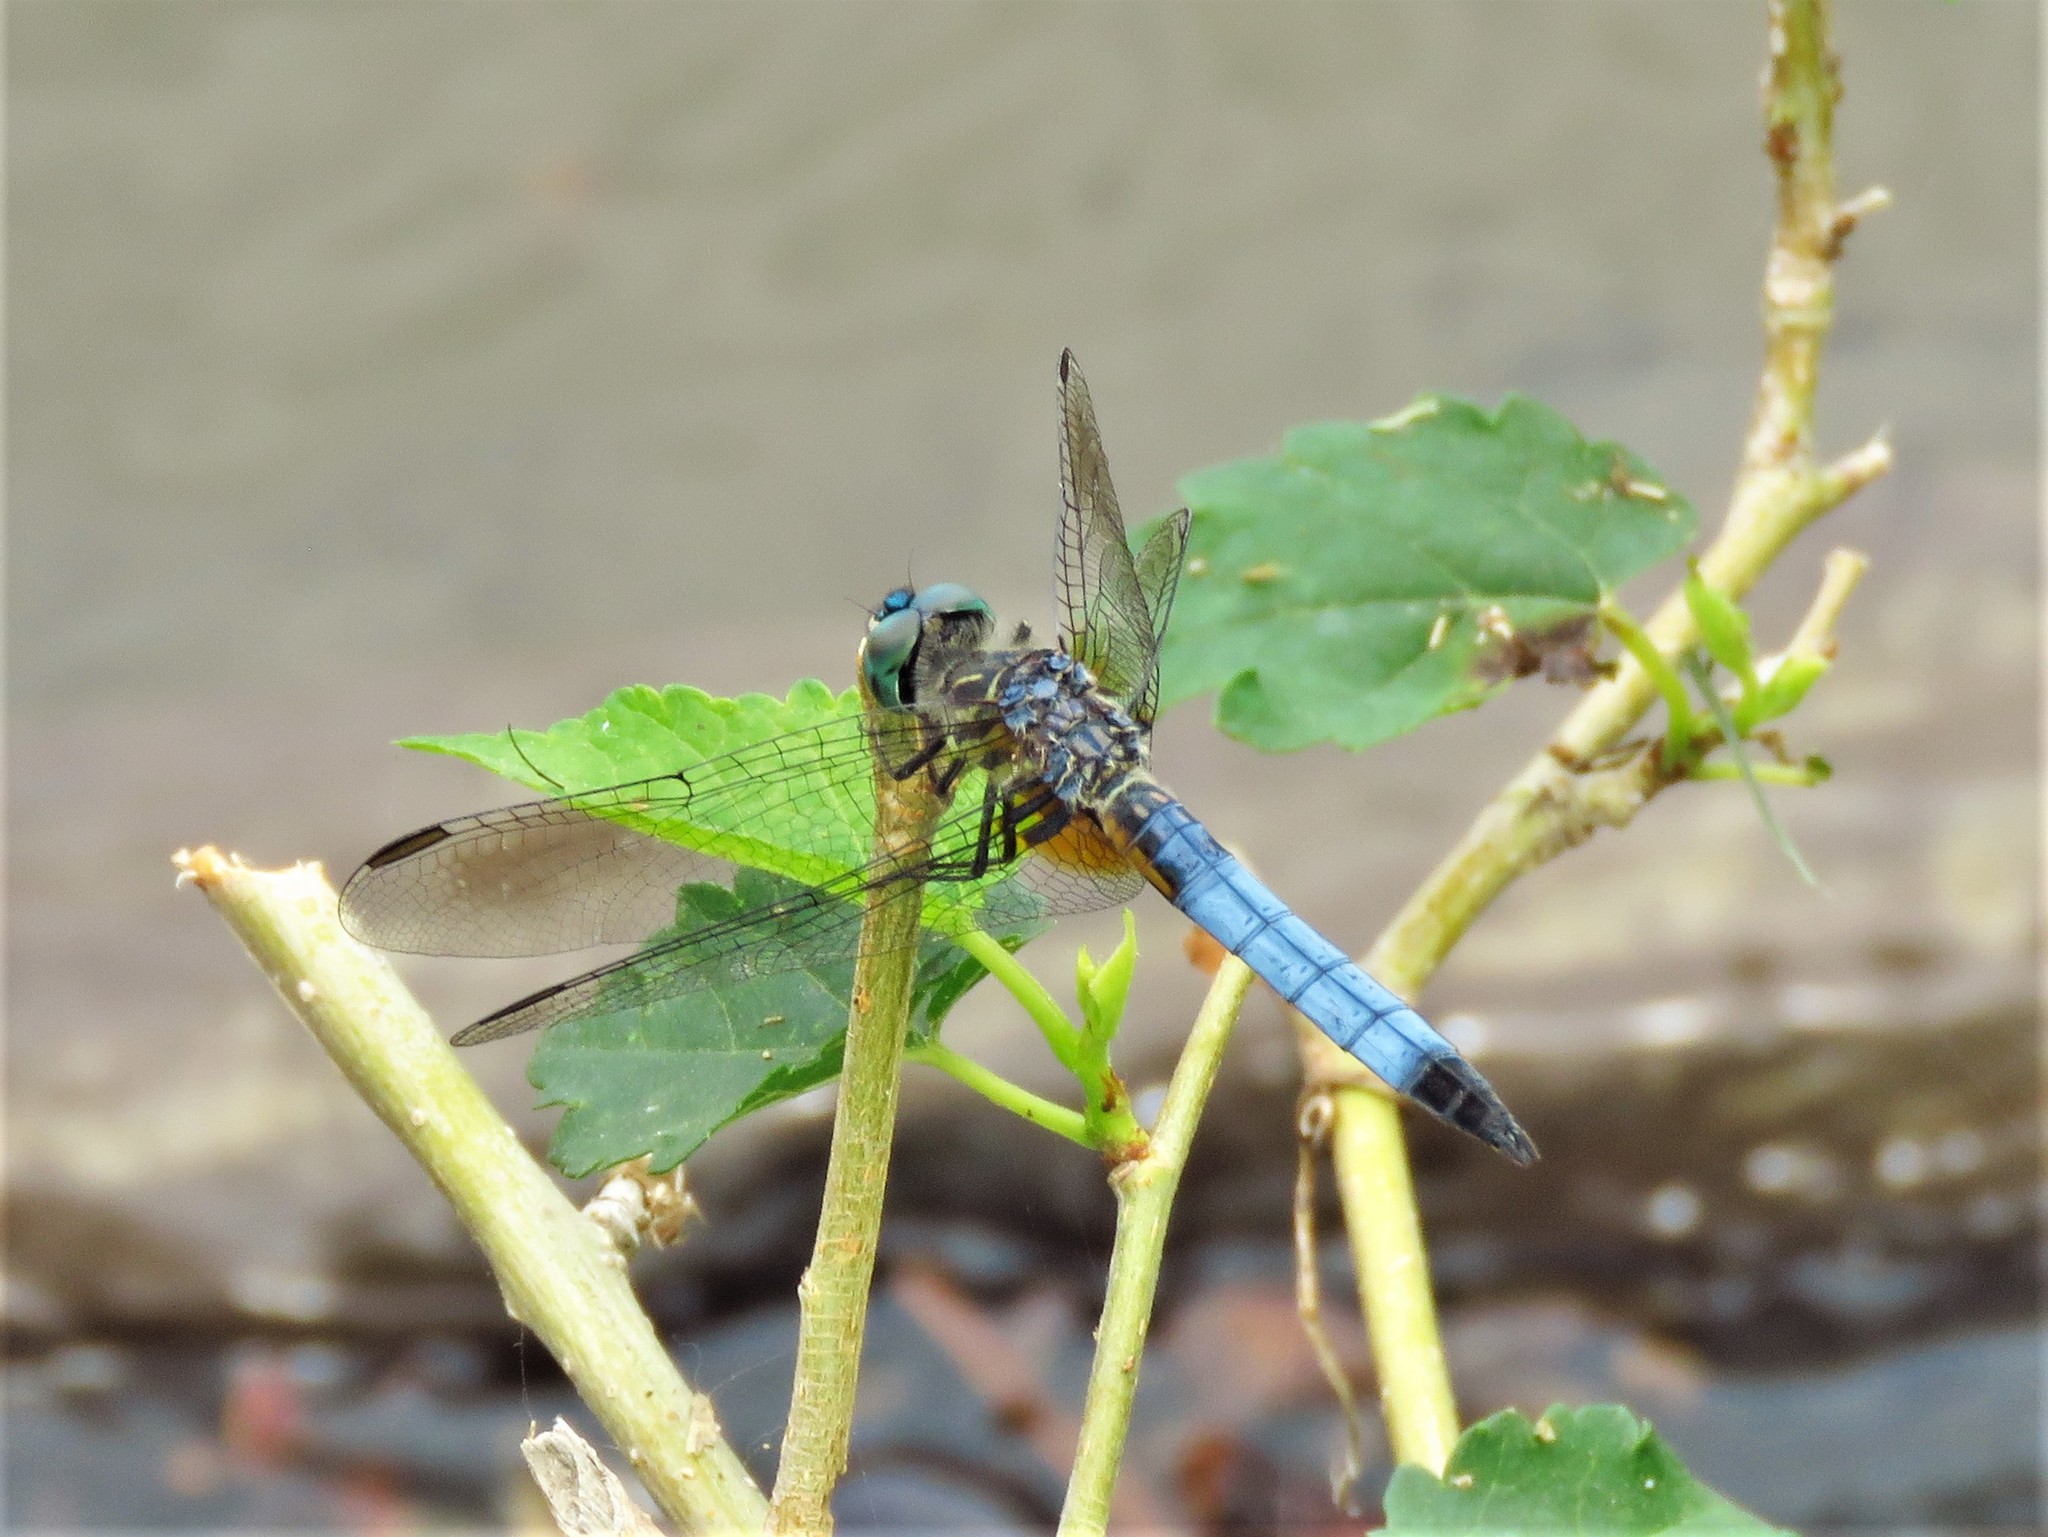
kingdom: Animalia
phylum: Arthropoda
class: Insecta
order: Odonata
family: Libellulidae
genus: Pachydiplax
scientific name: Pachydiplax longipennis
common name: Blue dasher
